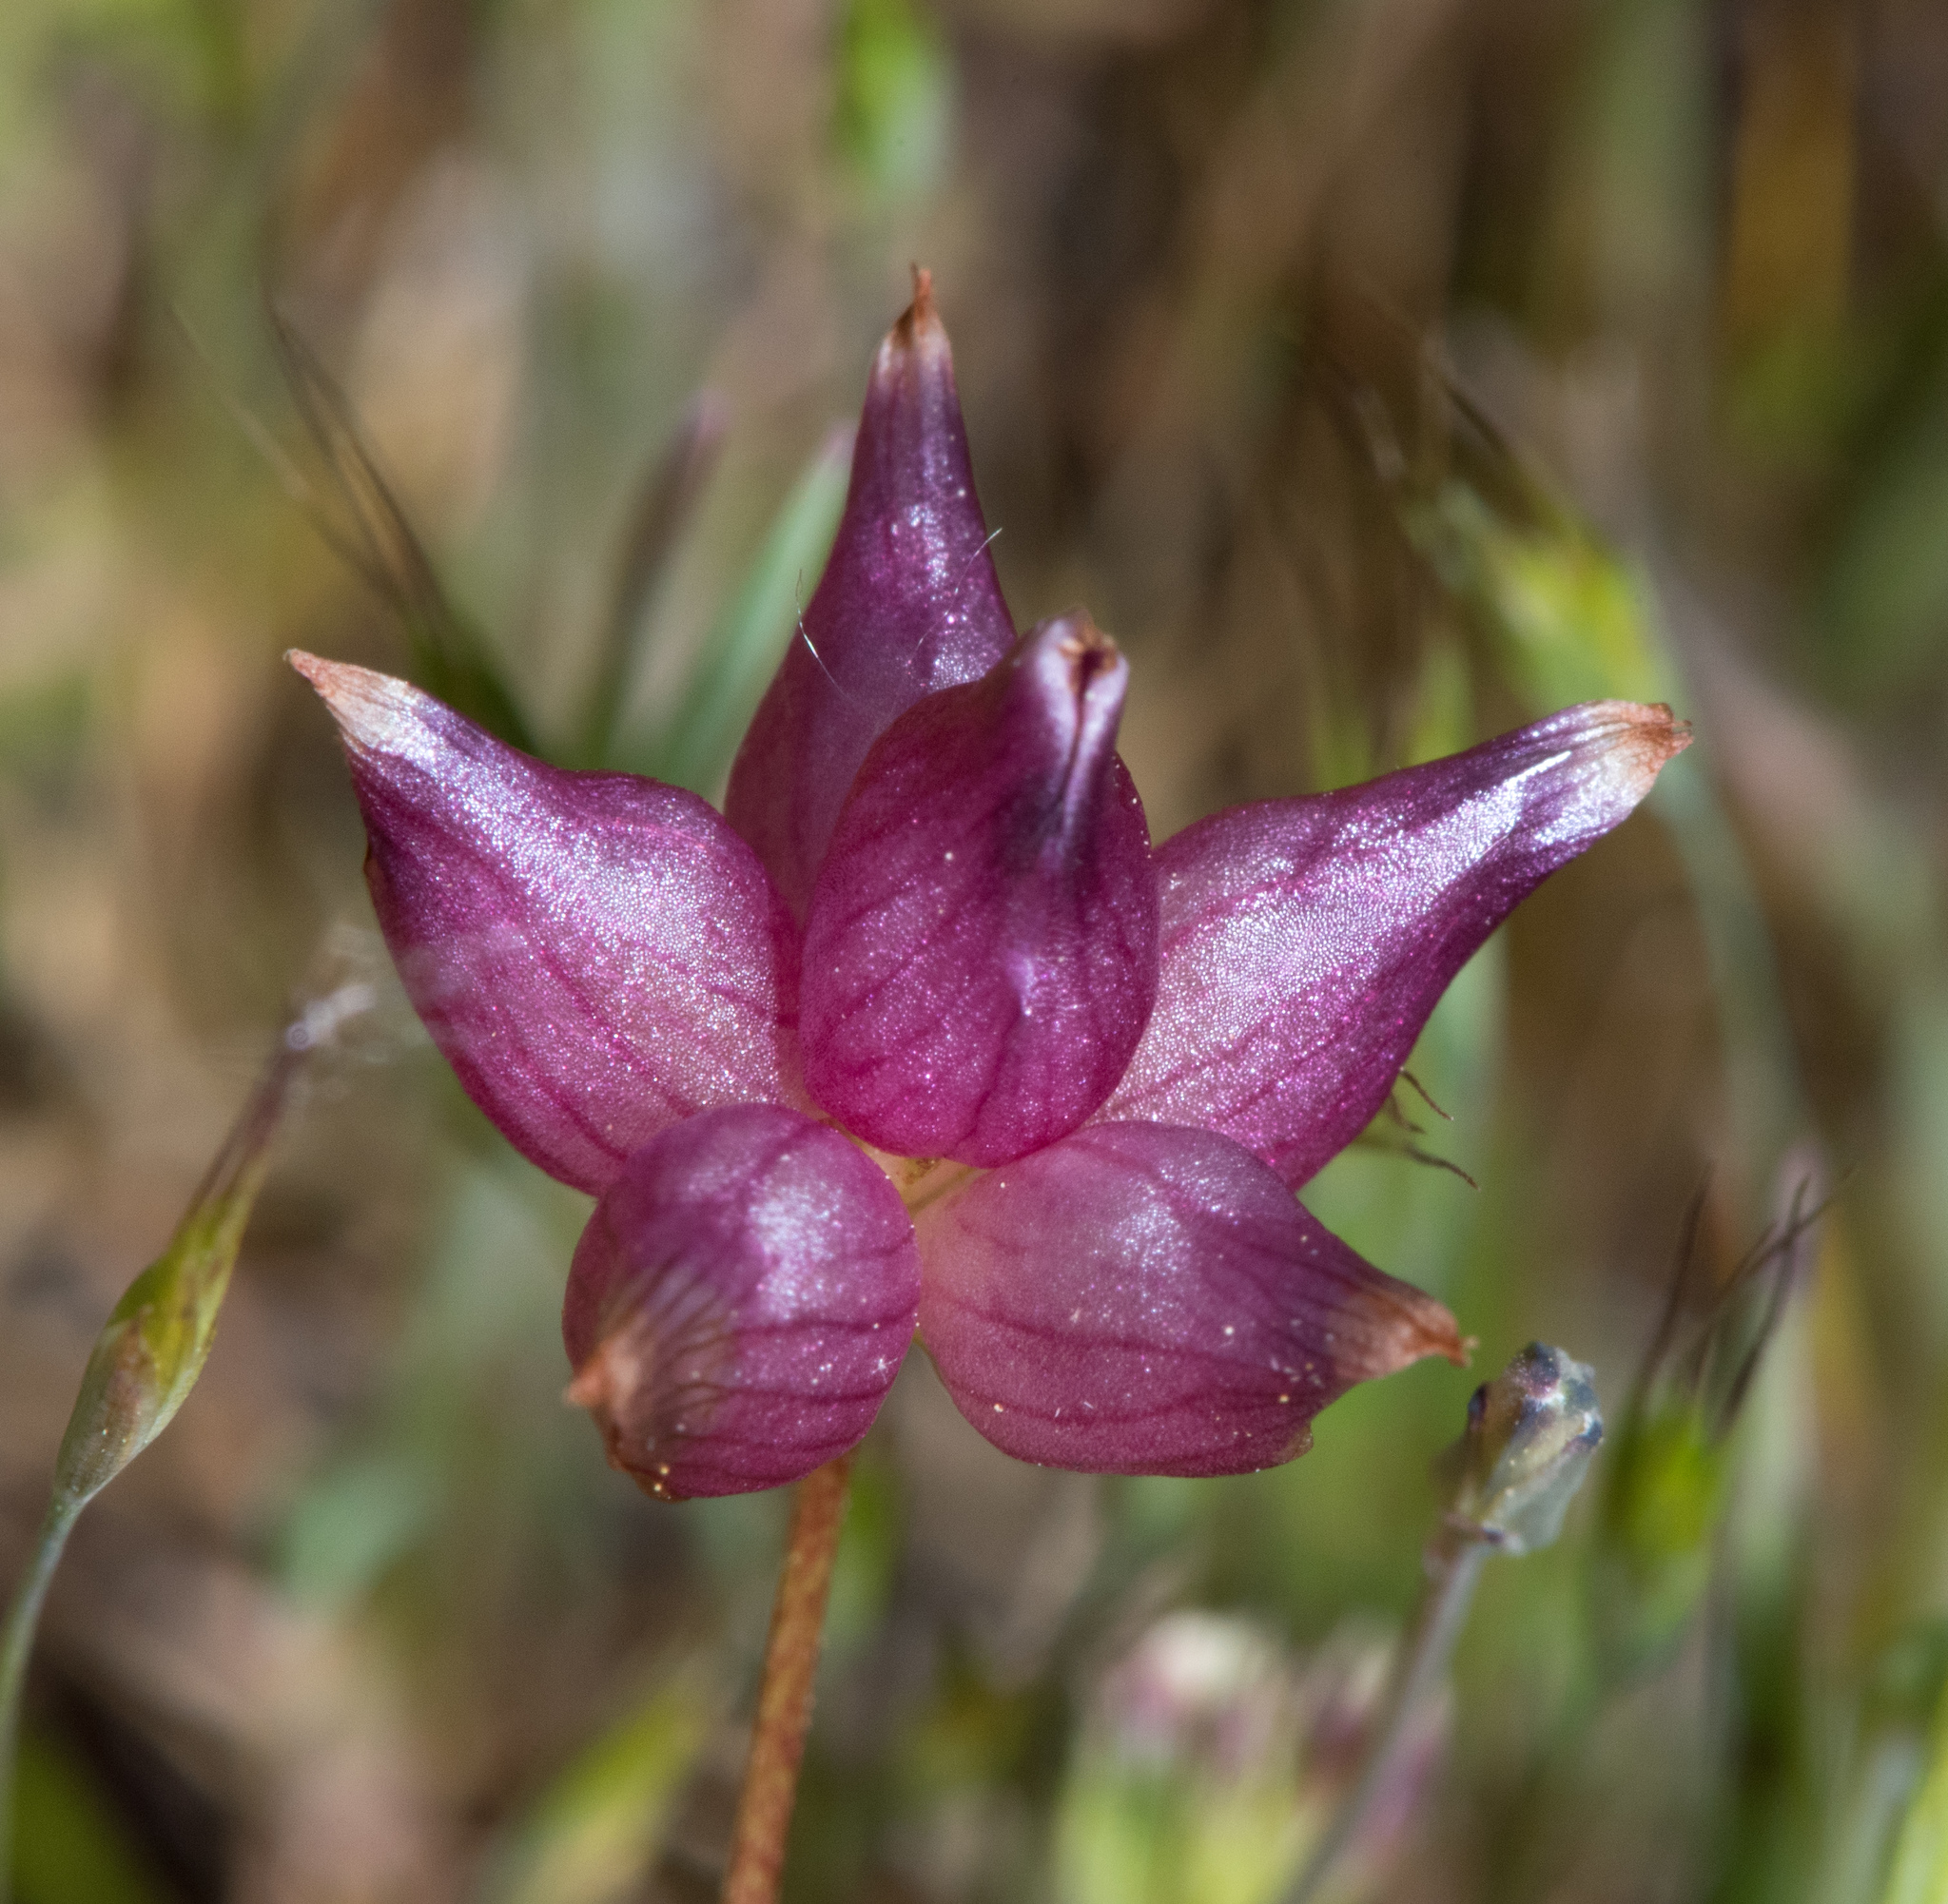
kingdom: Plantae
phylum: Tracheophyta
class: Magnoliopsida
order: Fabales
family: Fabaceae
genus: Trifolium
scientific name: Trifolium depauperatum
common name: Poverty clover
